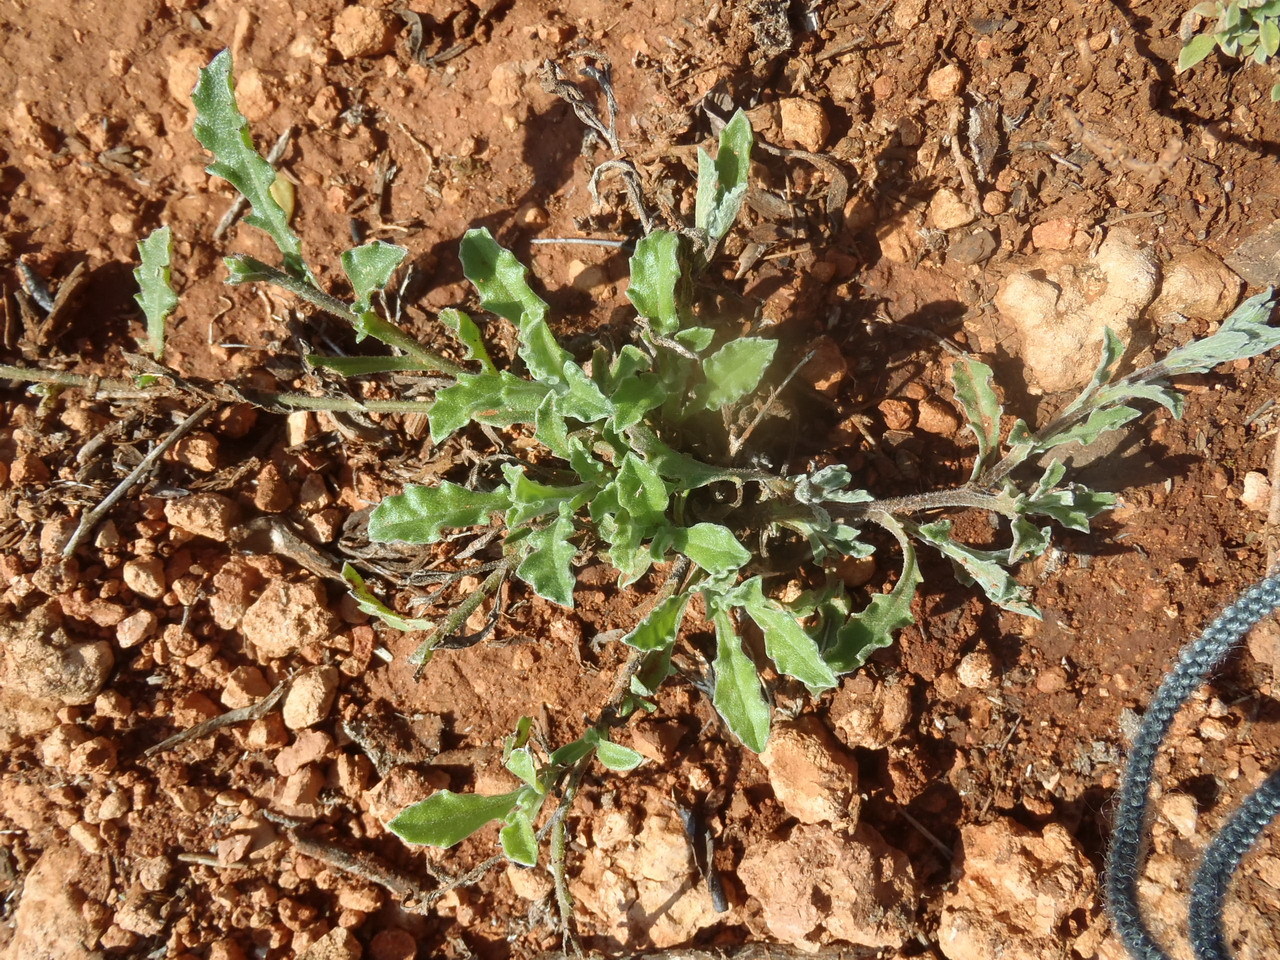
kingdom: Plantae
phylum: Tracheophyta
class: Magnoliopsida
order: Asterales
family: Asteraceae
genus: Arctotis
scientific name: Arctotis pinnatifida
